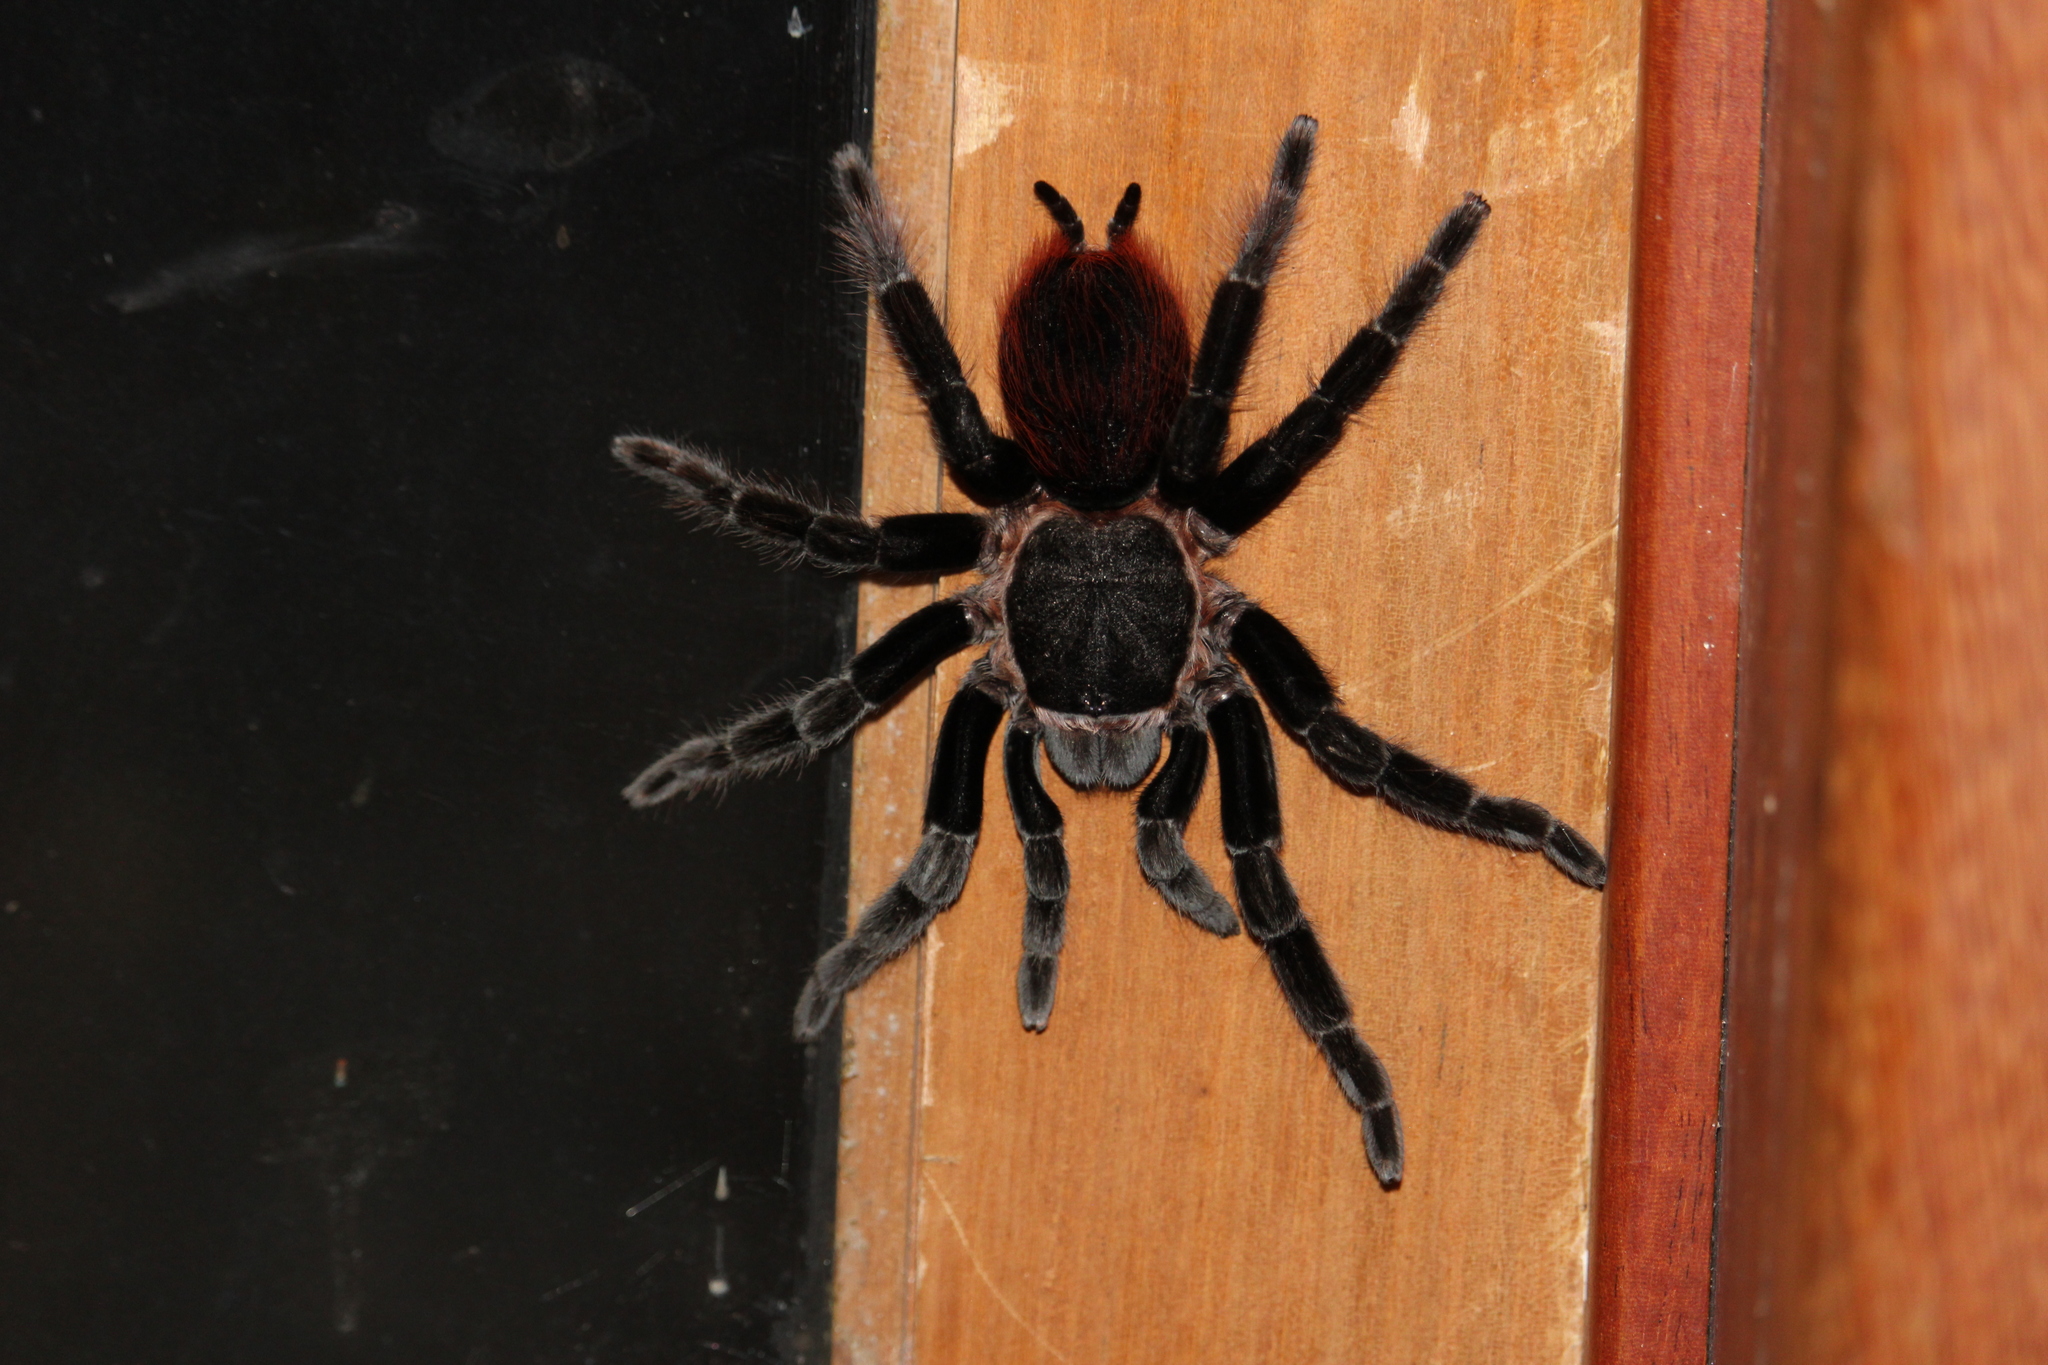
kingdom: Animalia
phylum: Arthropoda
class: Arachnida
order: Araneae
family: Theraphosidae
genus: Tliltocatl
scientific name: Tliltocatl sabulosus
